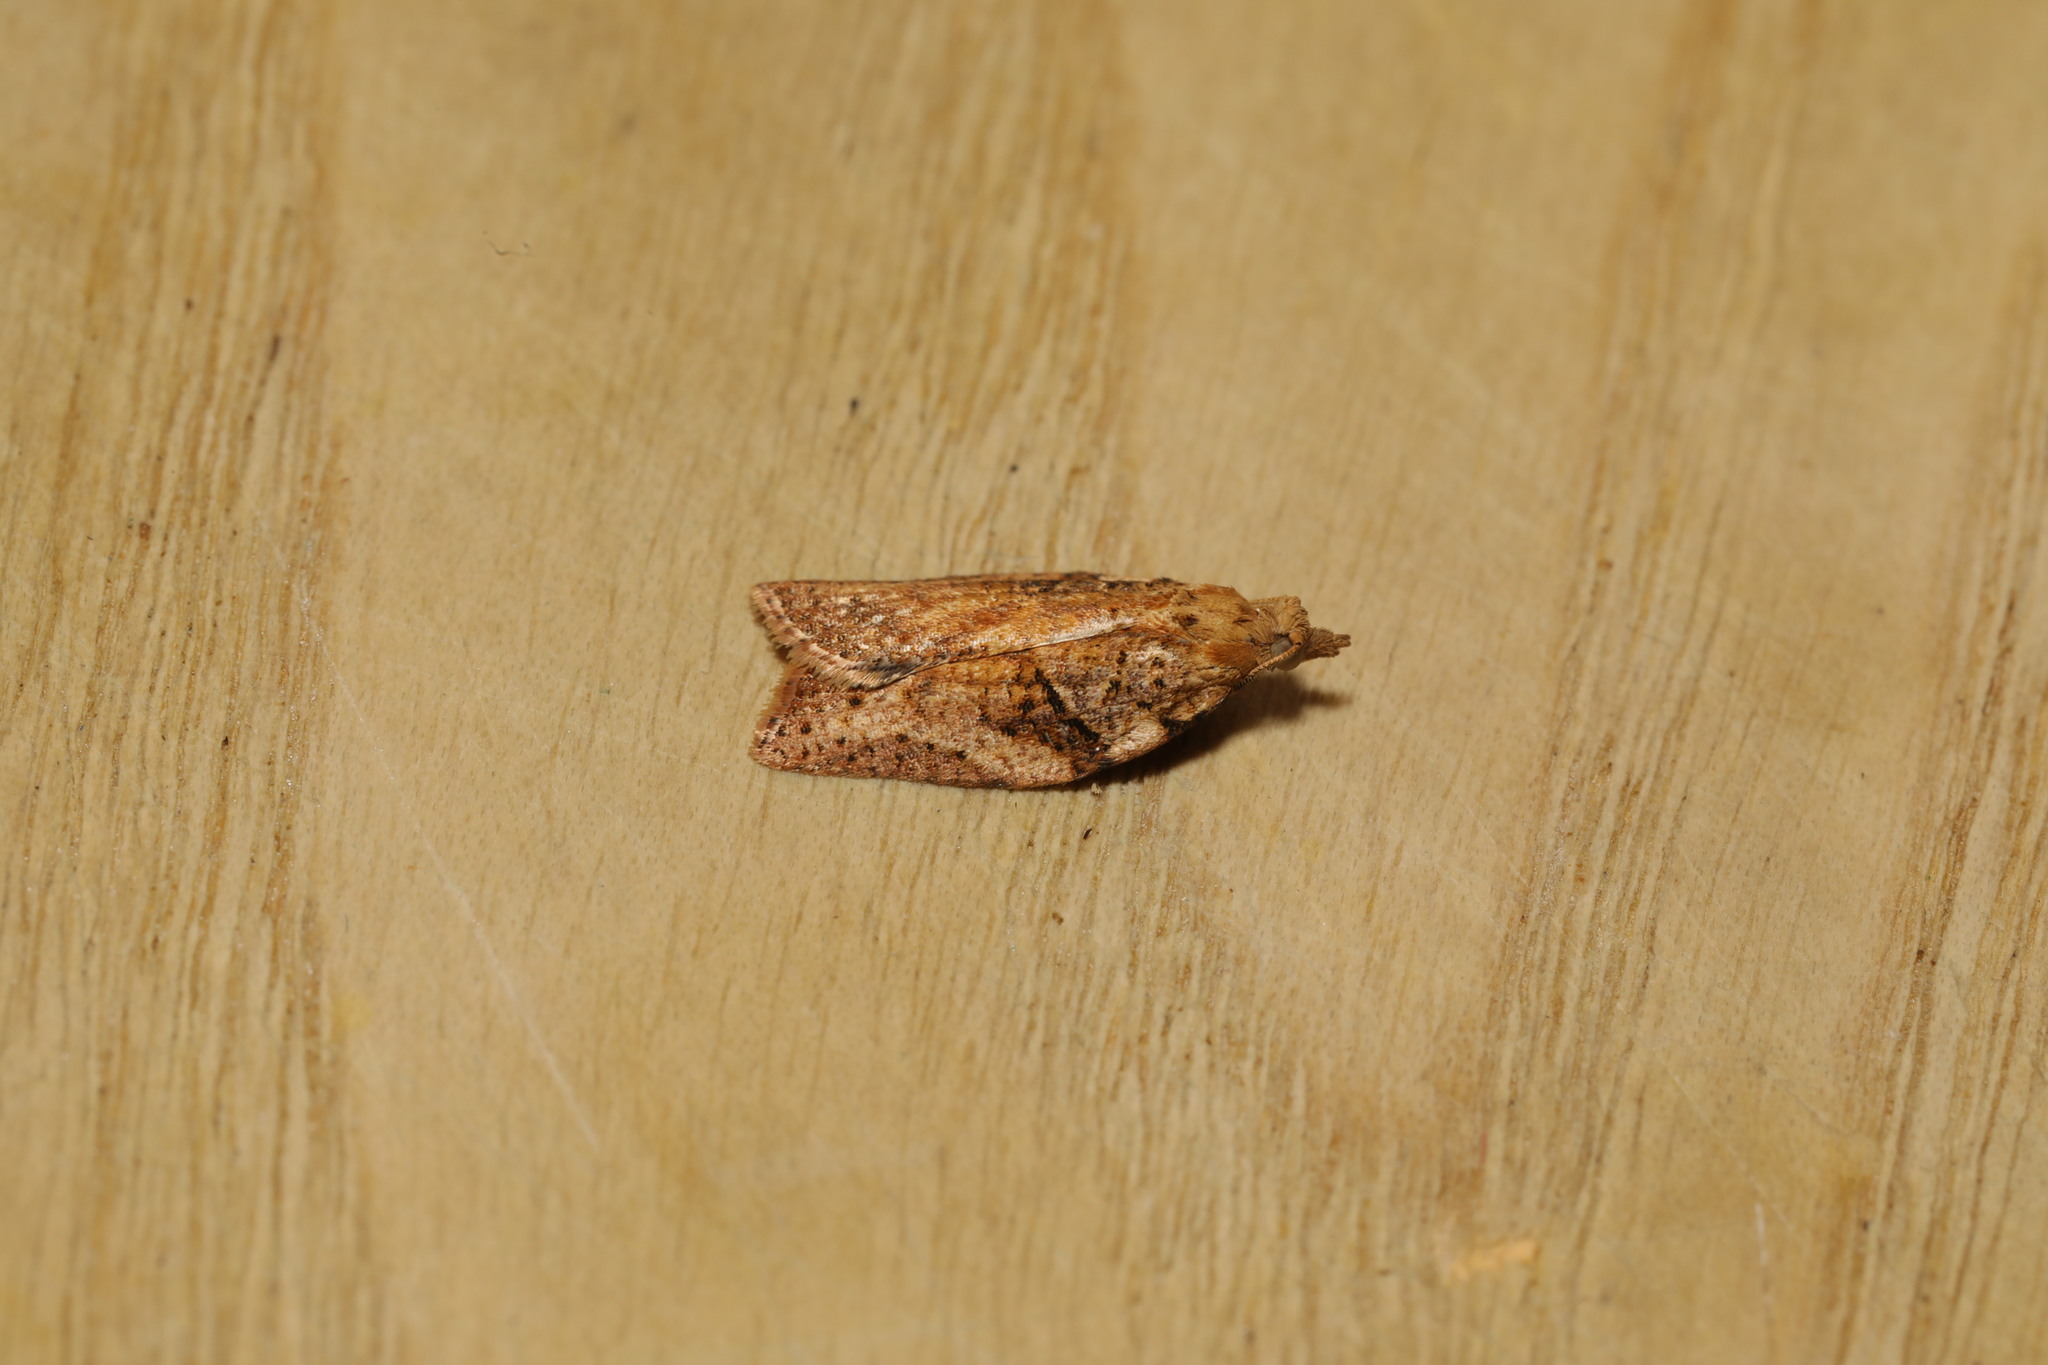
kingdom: Animalia
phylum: Arthropoda
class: Insecta
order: Lepidoptera
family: Tortricidae
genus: Epiphyas
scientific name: Epiphyas postvittana
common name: Light brown apple moth
